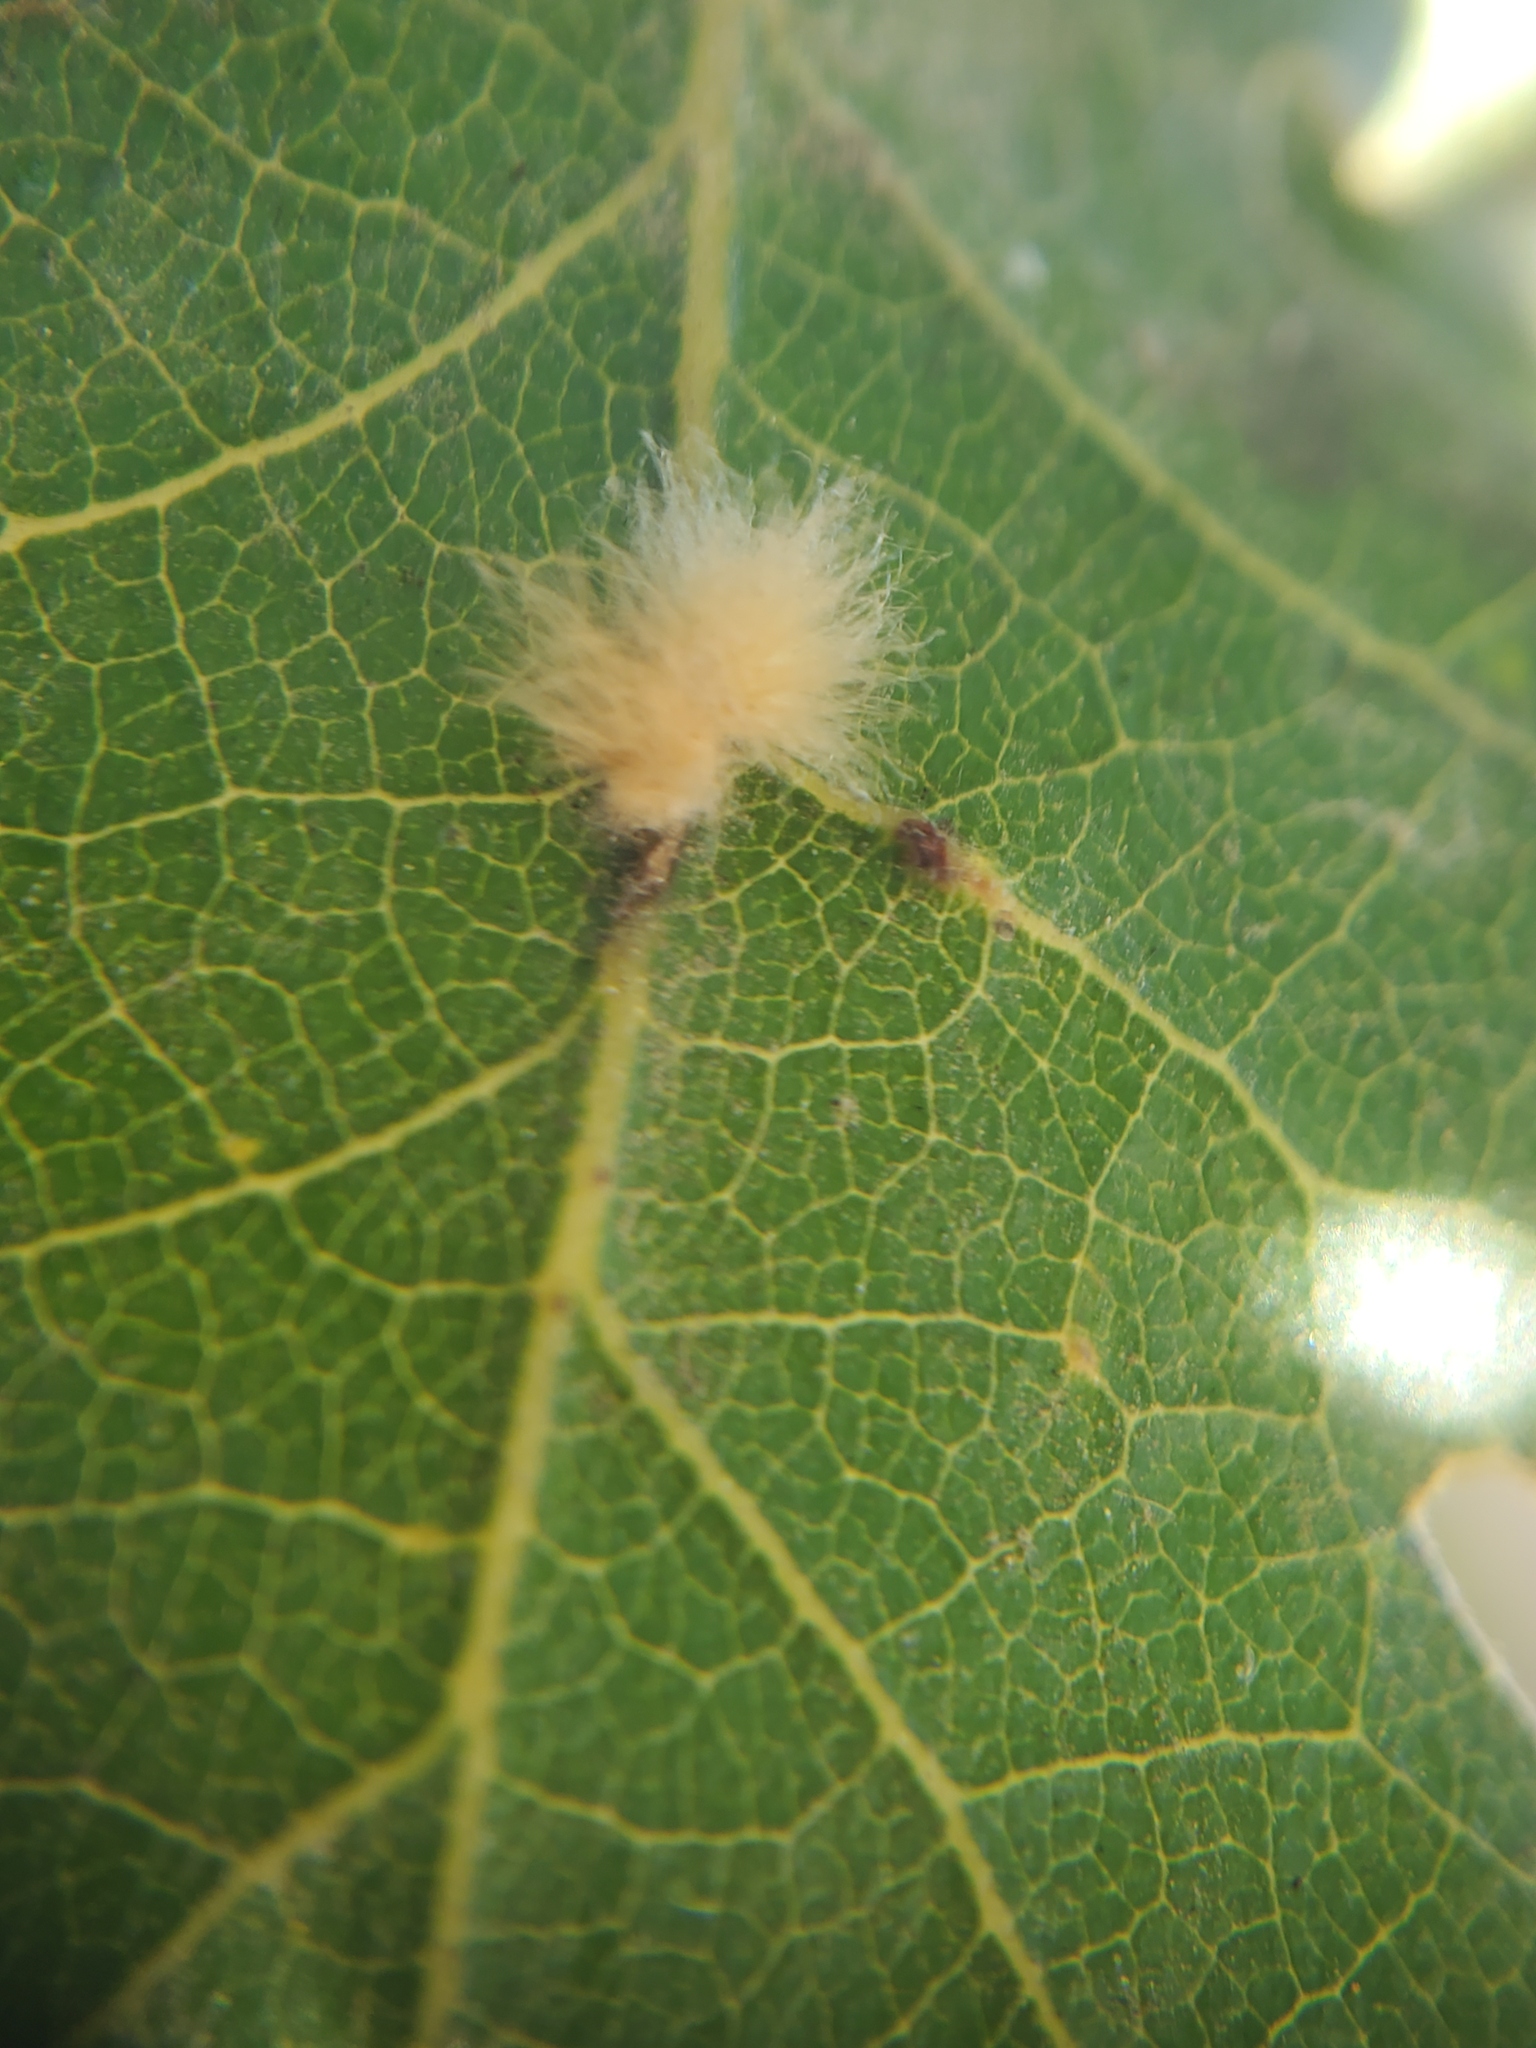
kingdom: Animalia
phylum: Arthropoda
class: Insecta
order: Hymenoptera
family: Cynipidae
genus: Andricus
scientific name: Andricus Druon fullawayi
